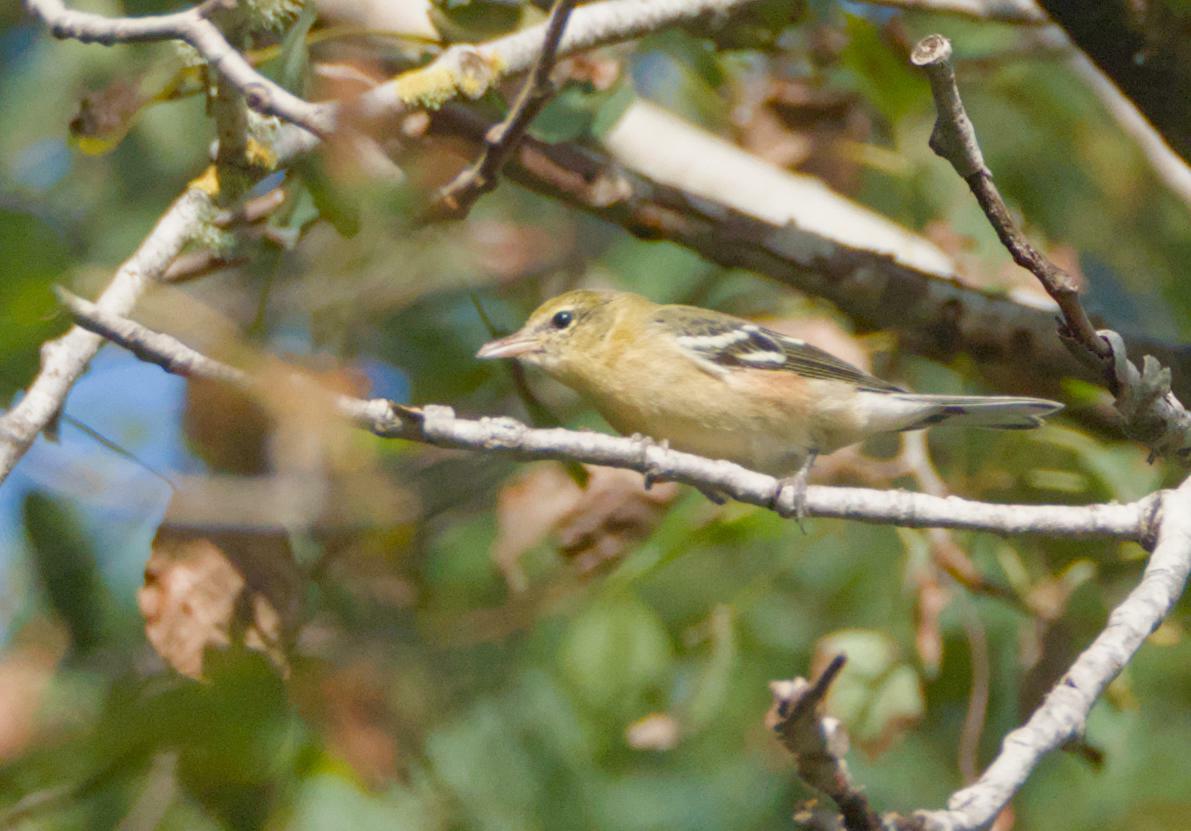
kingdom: Animalia
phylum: Chordata
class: Aves
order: Passeriformes
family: Parulidae
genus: Setophaga
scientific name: Setophaga castanea
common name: Bay-breasted warbler
